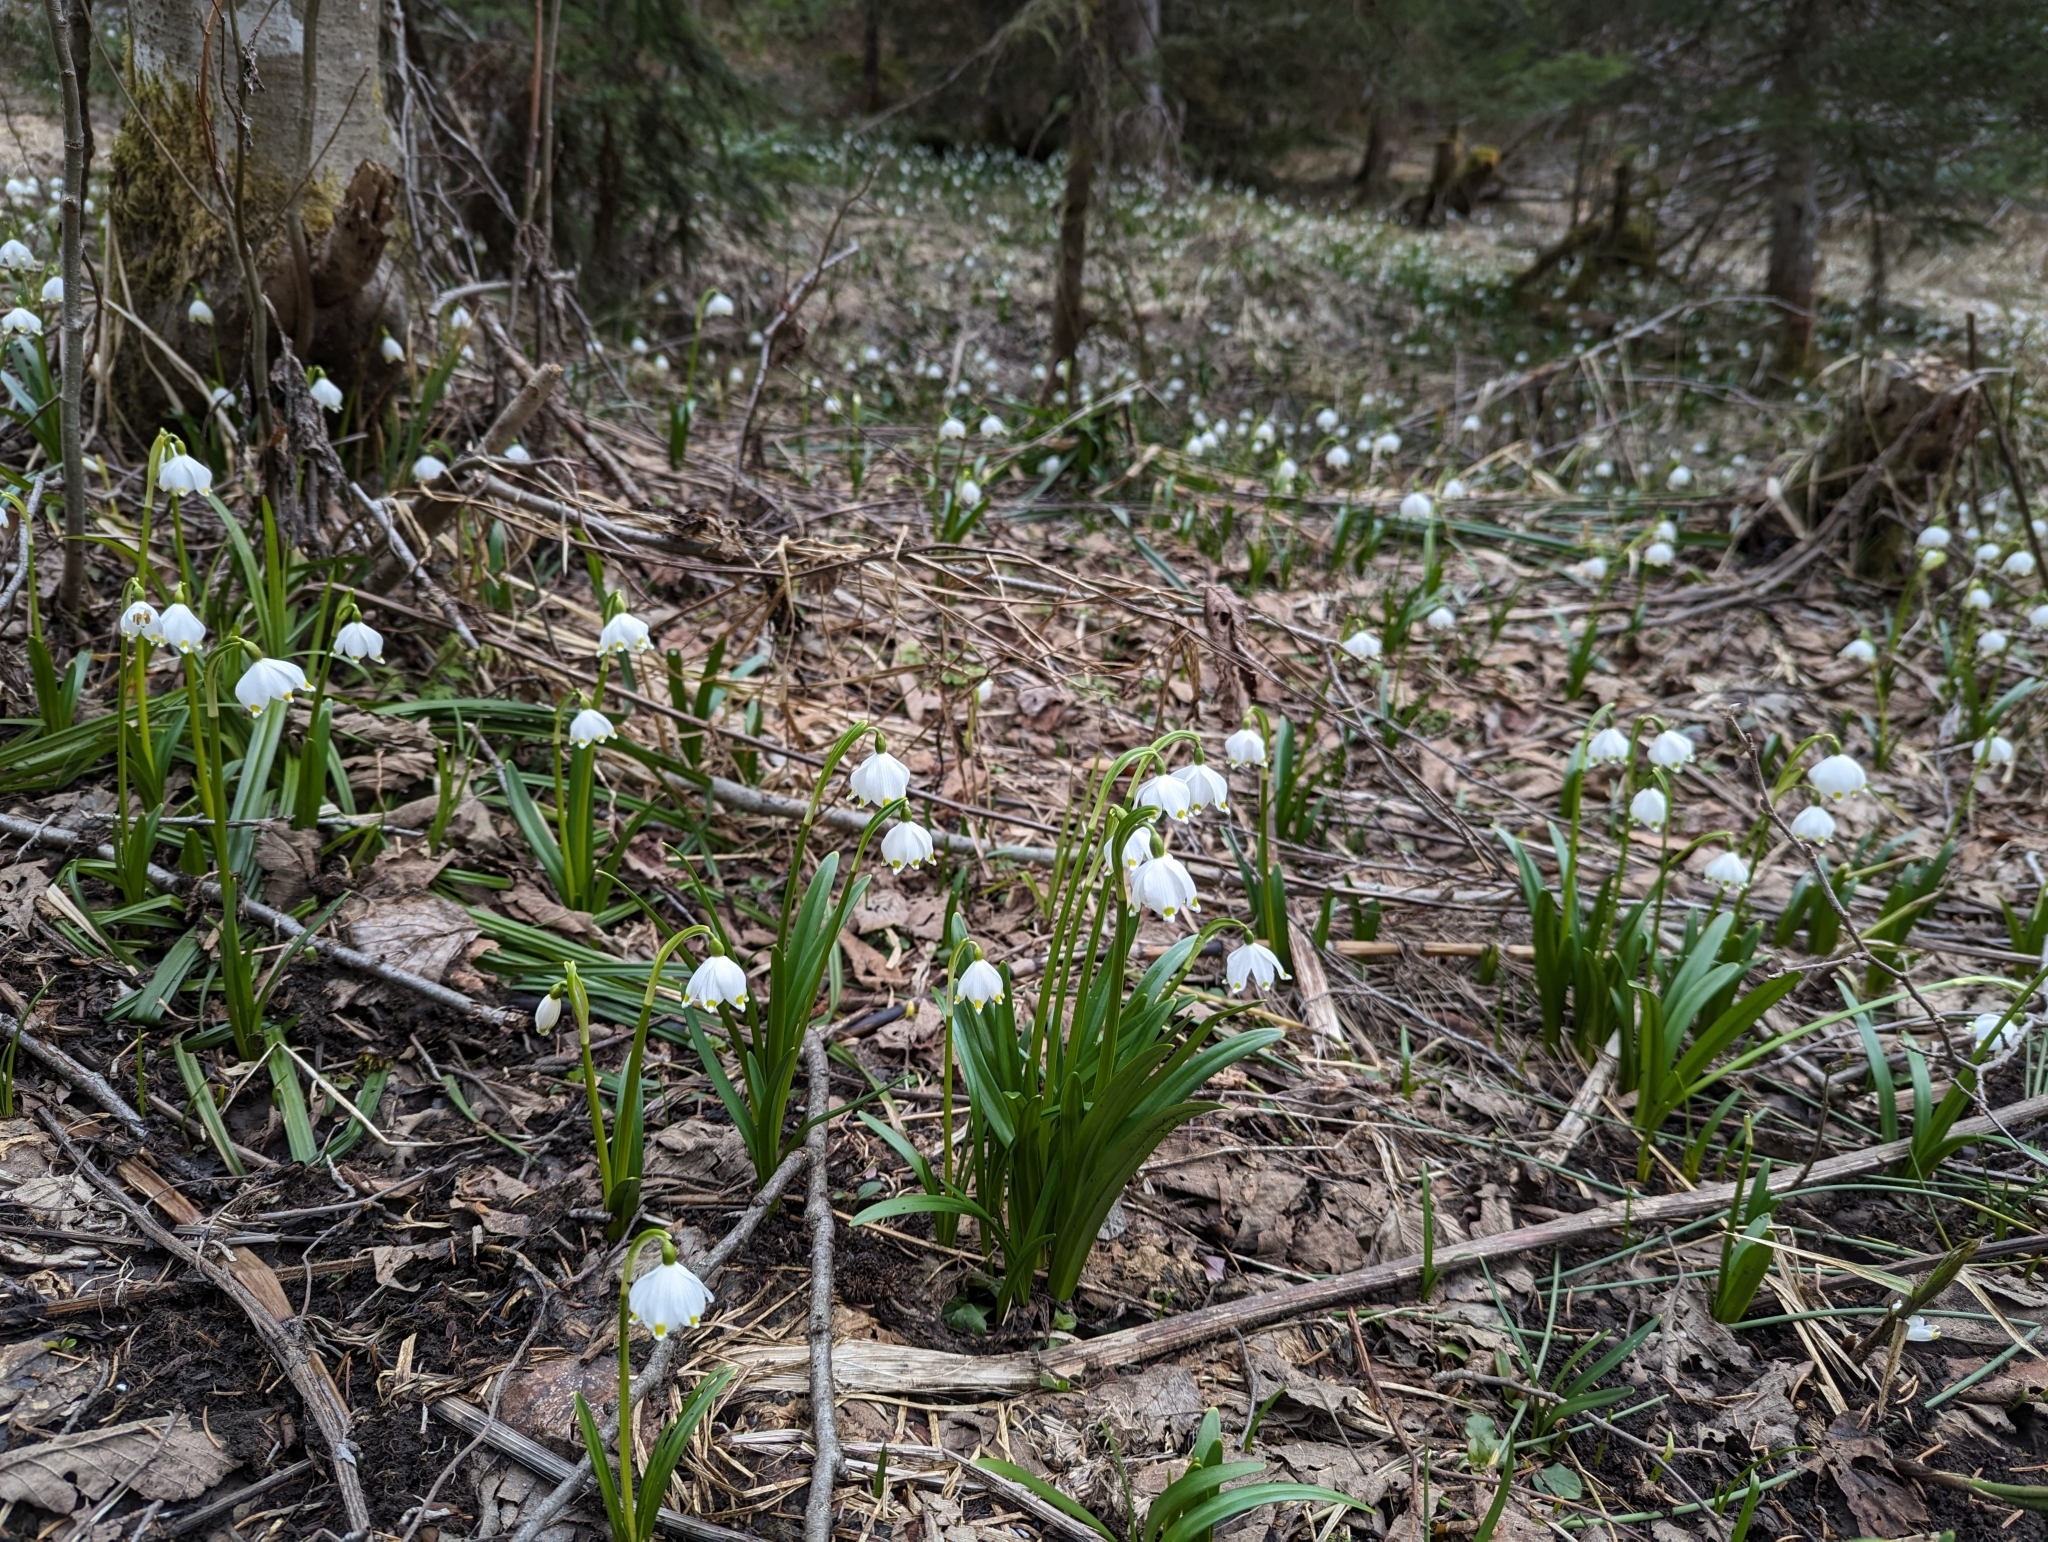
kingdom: Plantae
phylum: Tracheophyta
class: Liliopsida
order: Asparagales
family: Amaryllidaceae
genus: Leucojum
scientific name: Leucojum vernum
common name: Spring snowflake
